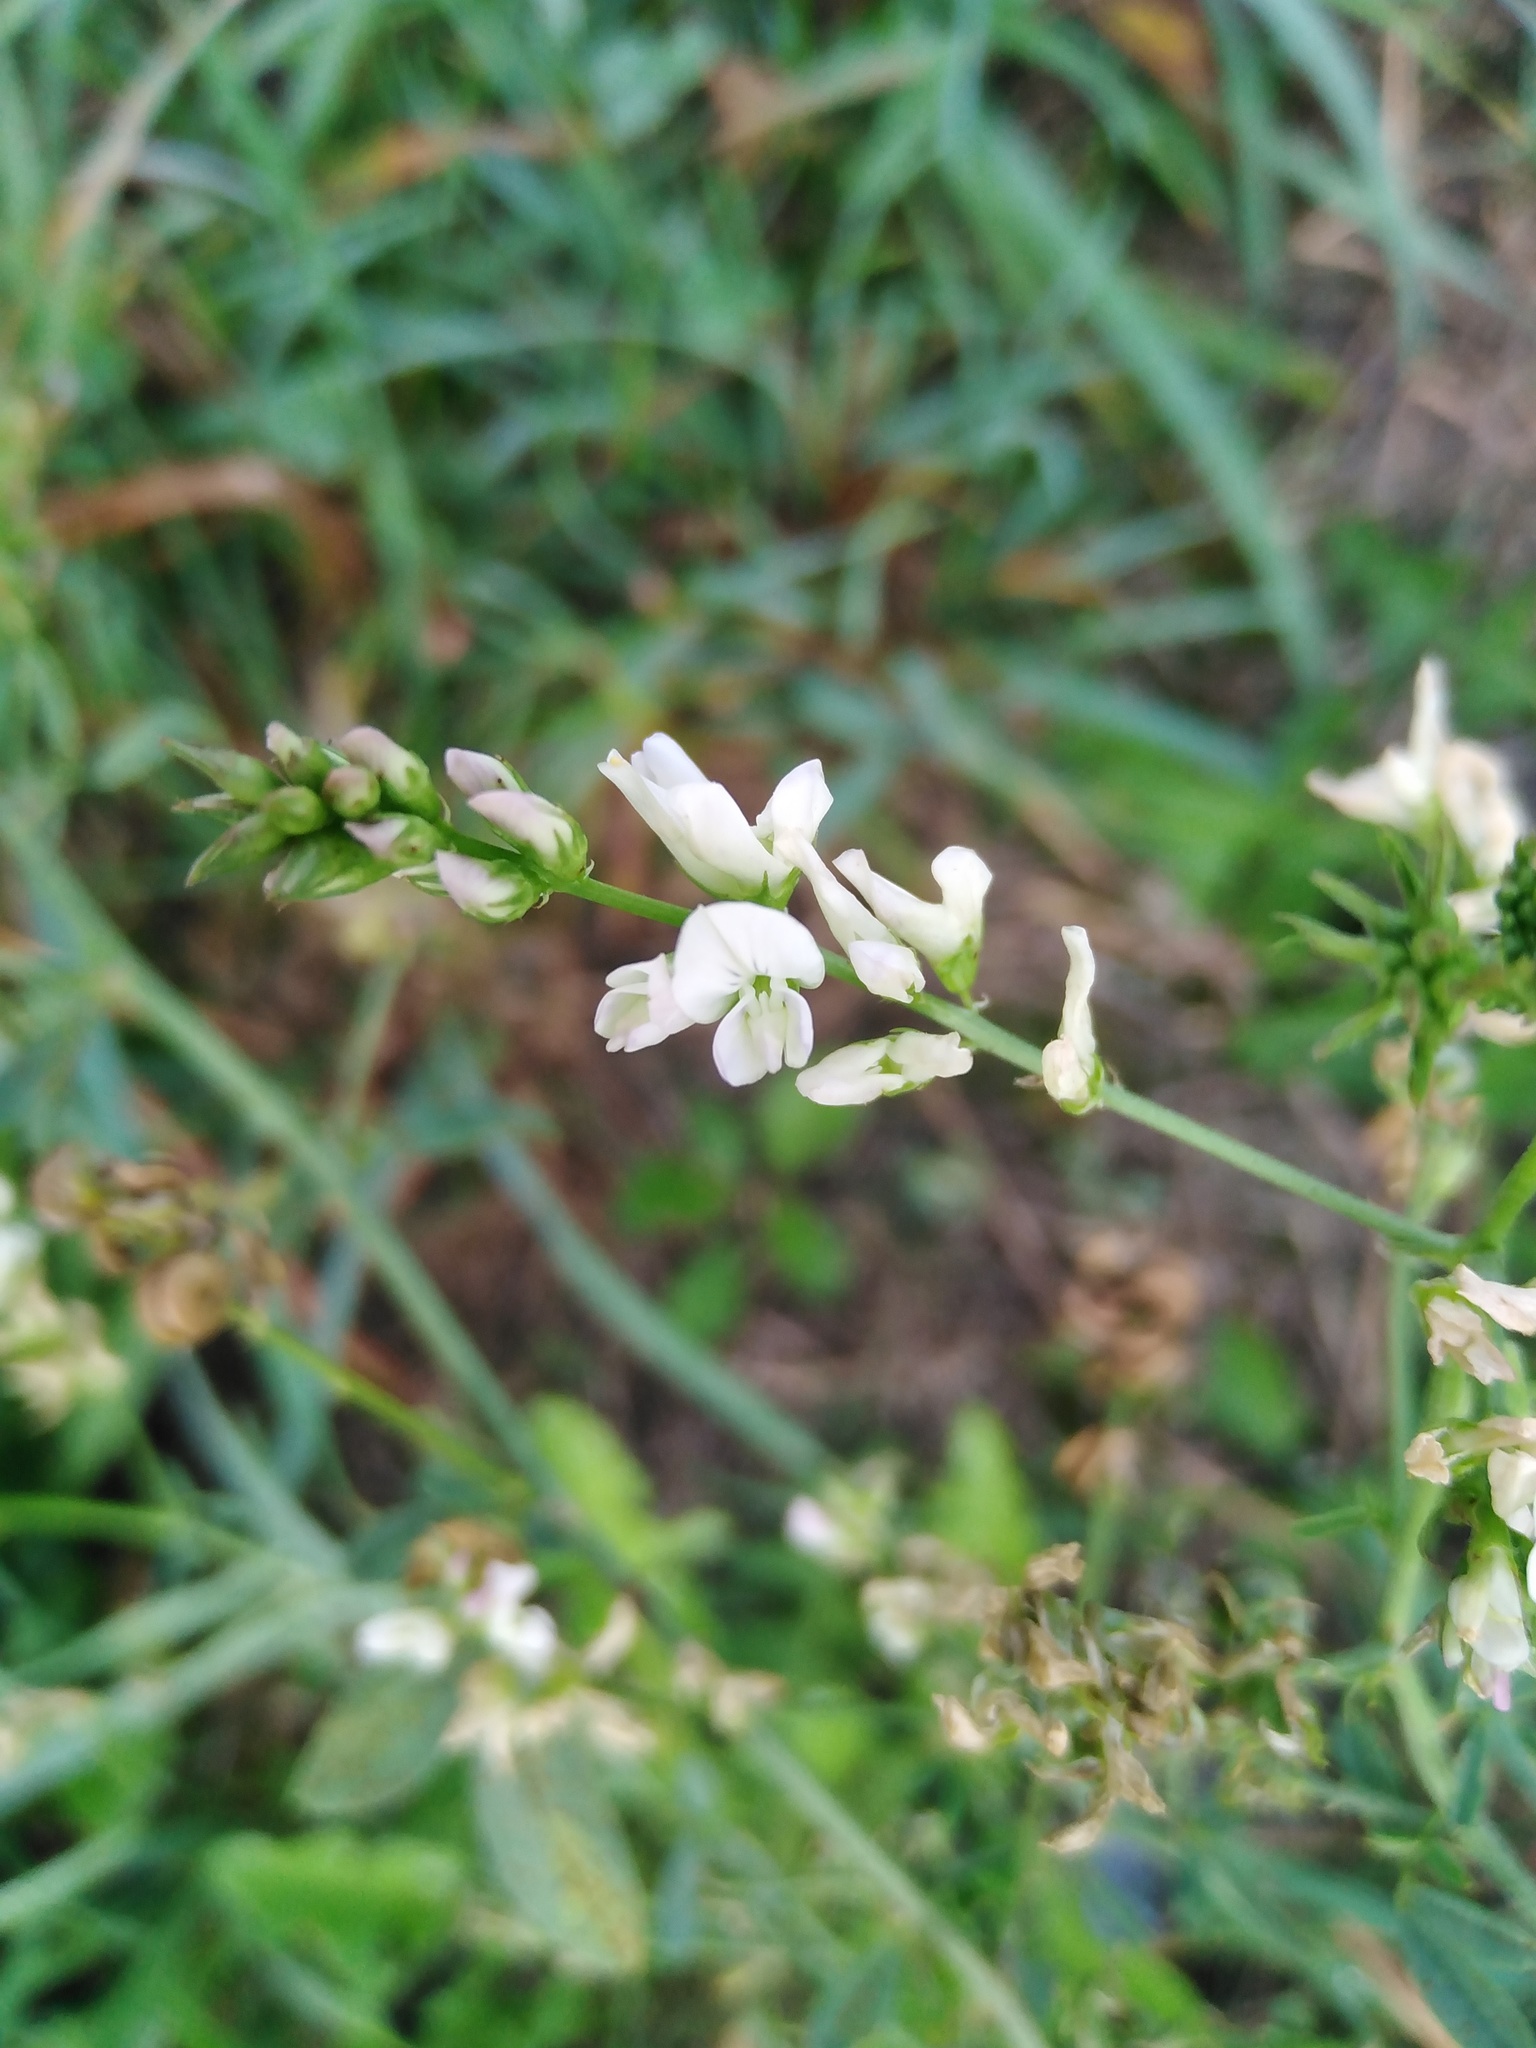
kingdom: Plantae
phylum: Tracheophyta
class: Magnoliopsida
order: Fabales
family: Fabaceae
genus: Melilotus
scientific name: Melilotus albus
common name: White melilot
